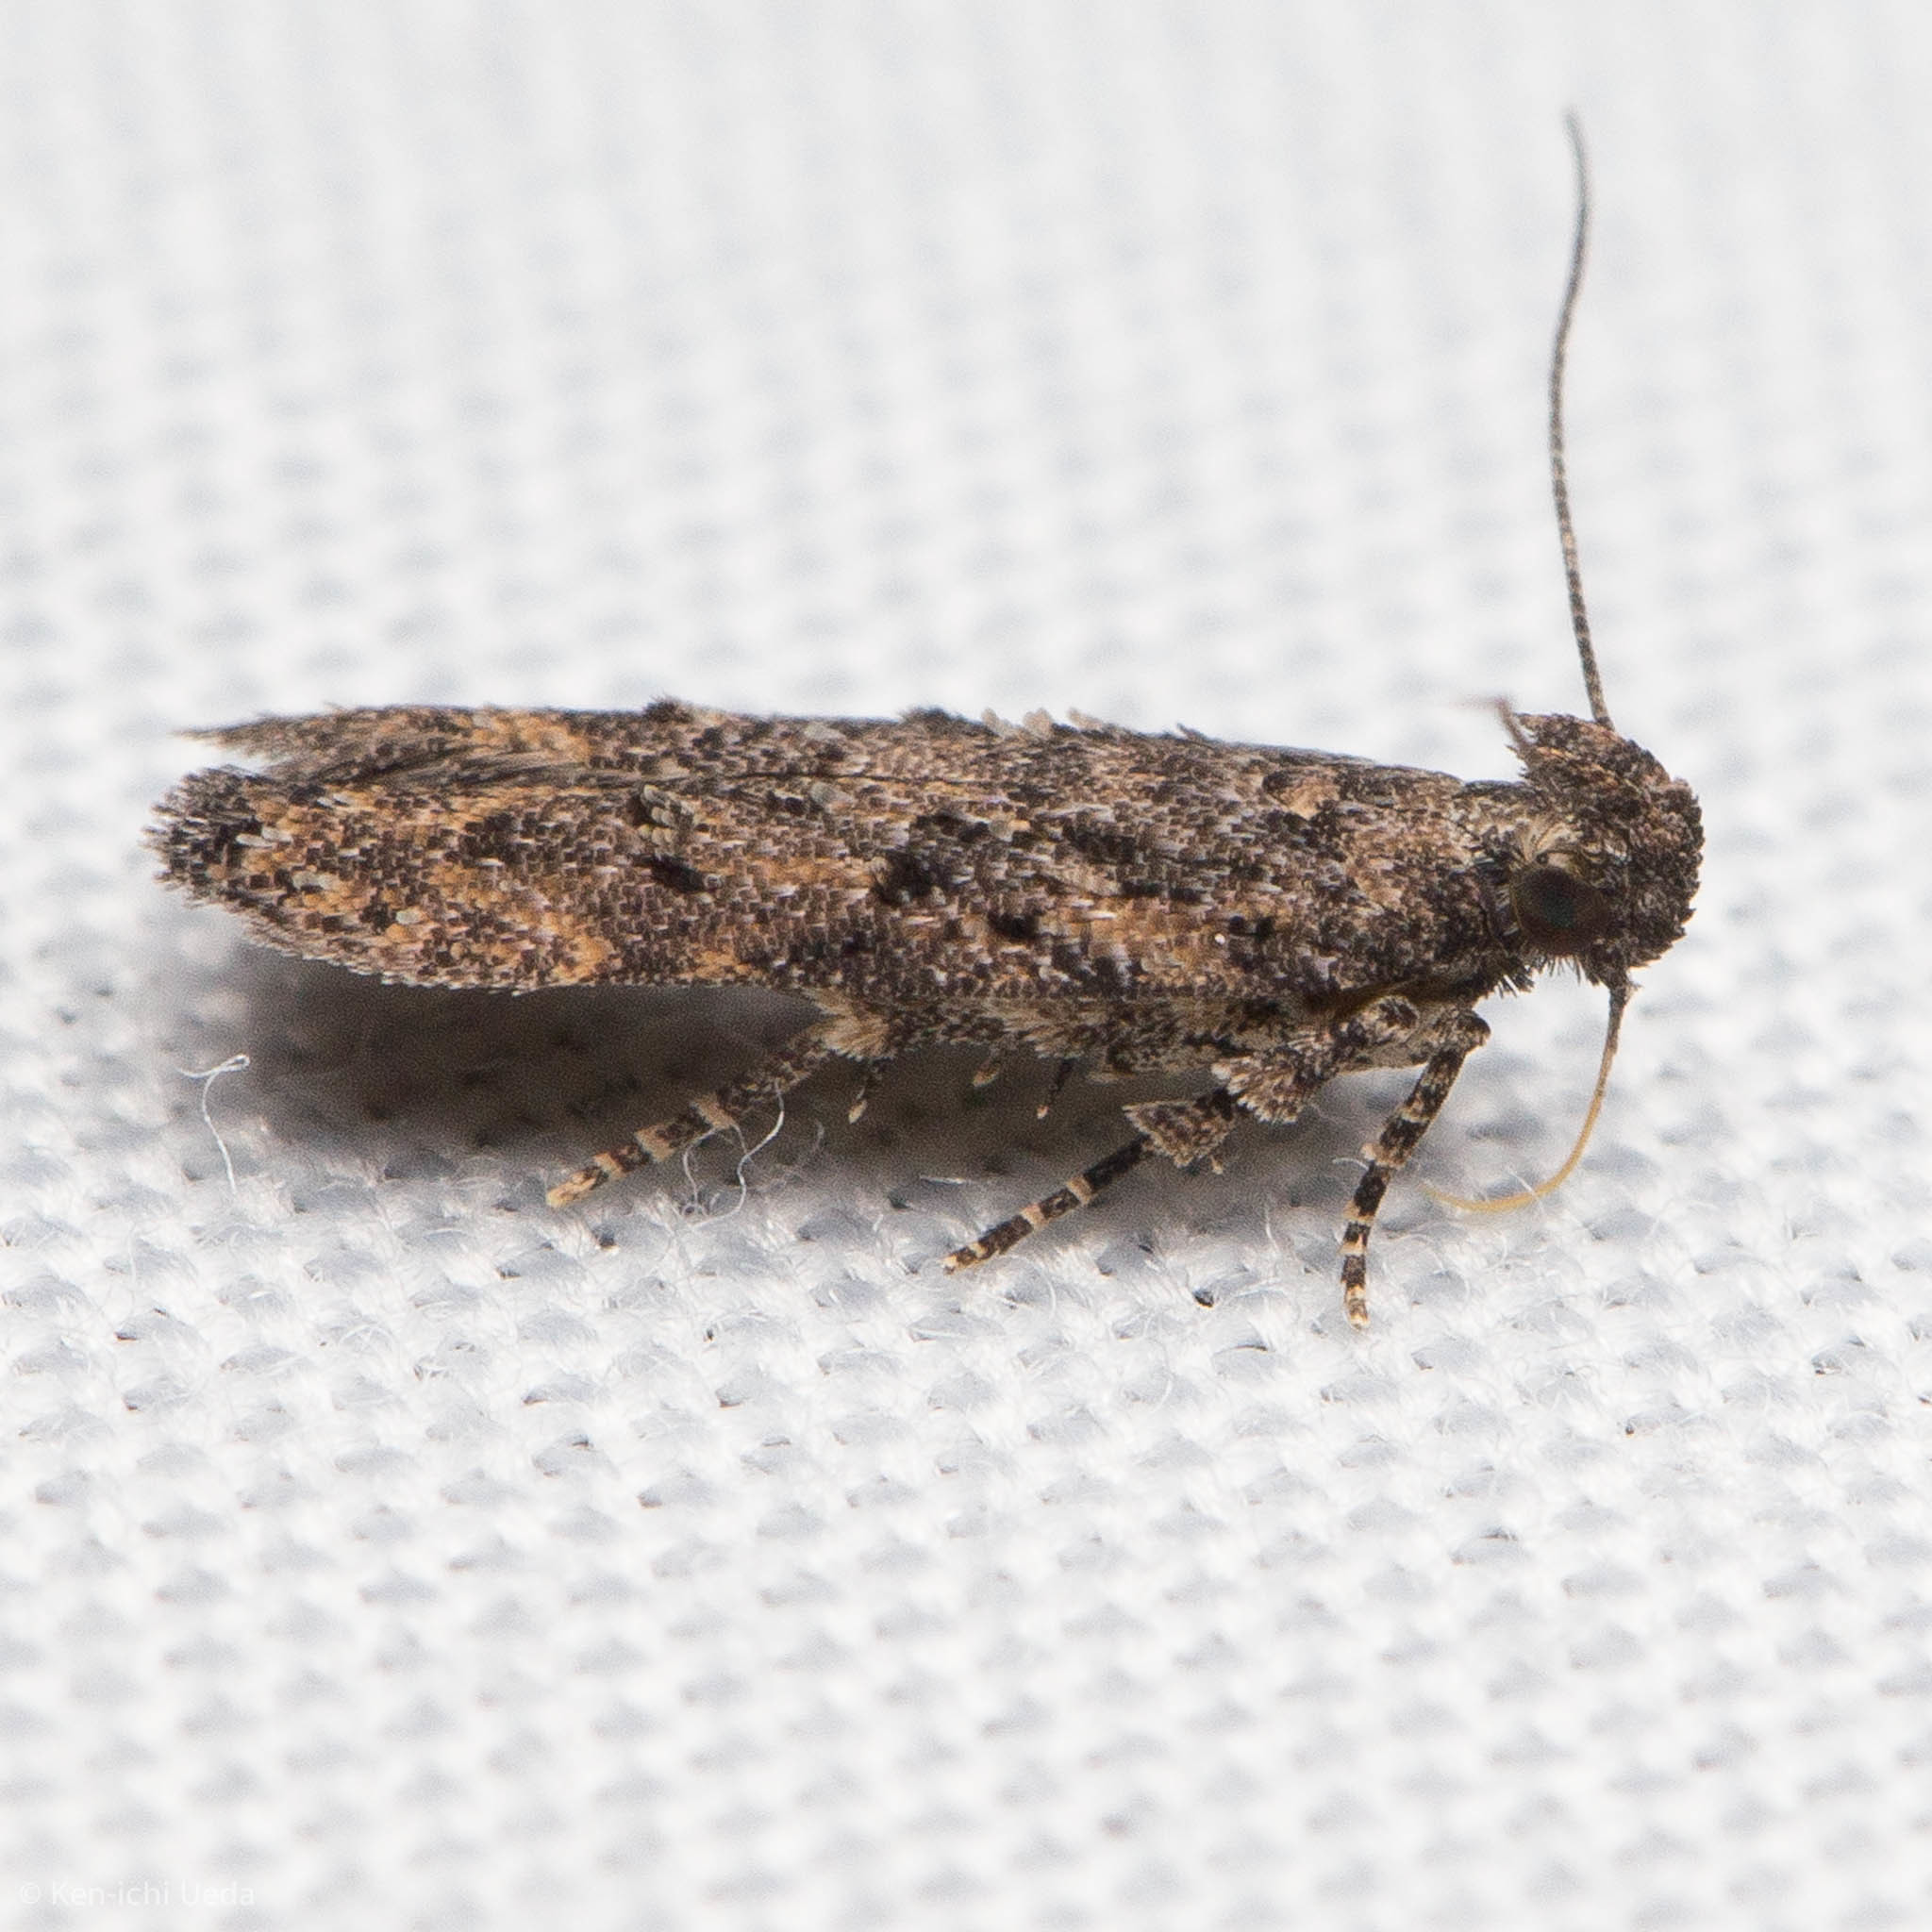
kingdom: Animalia
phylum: Arthropoda
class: Insecta
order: Lepidoptera
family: Gelechiidae
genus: Hypatima
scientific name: Hypatima zesticopa
